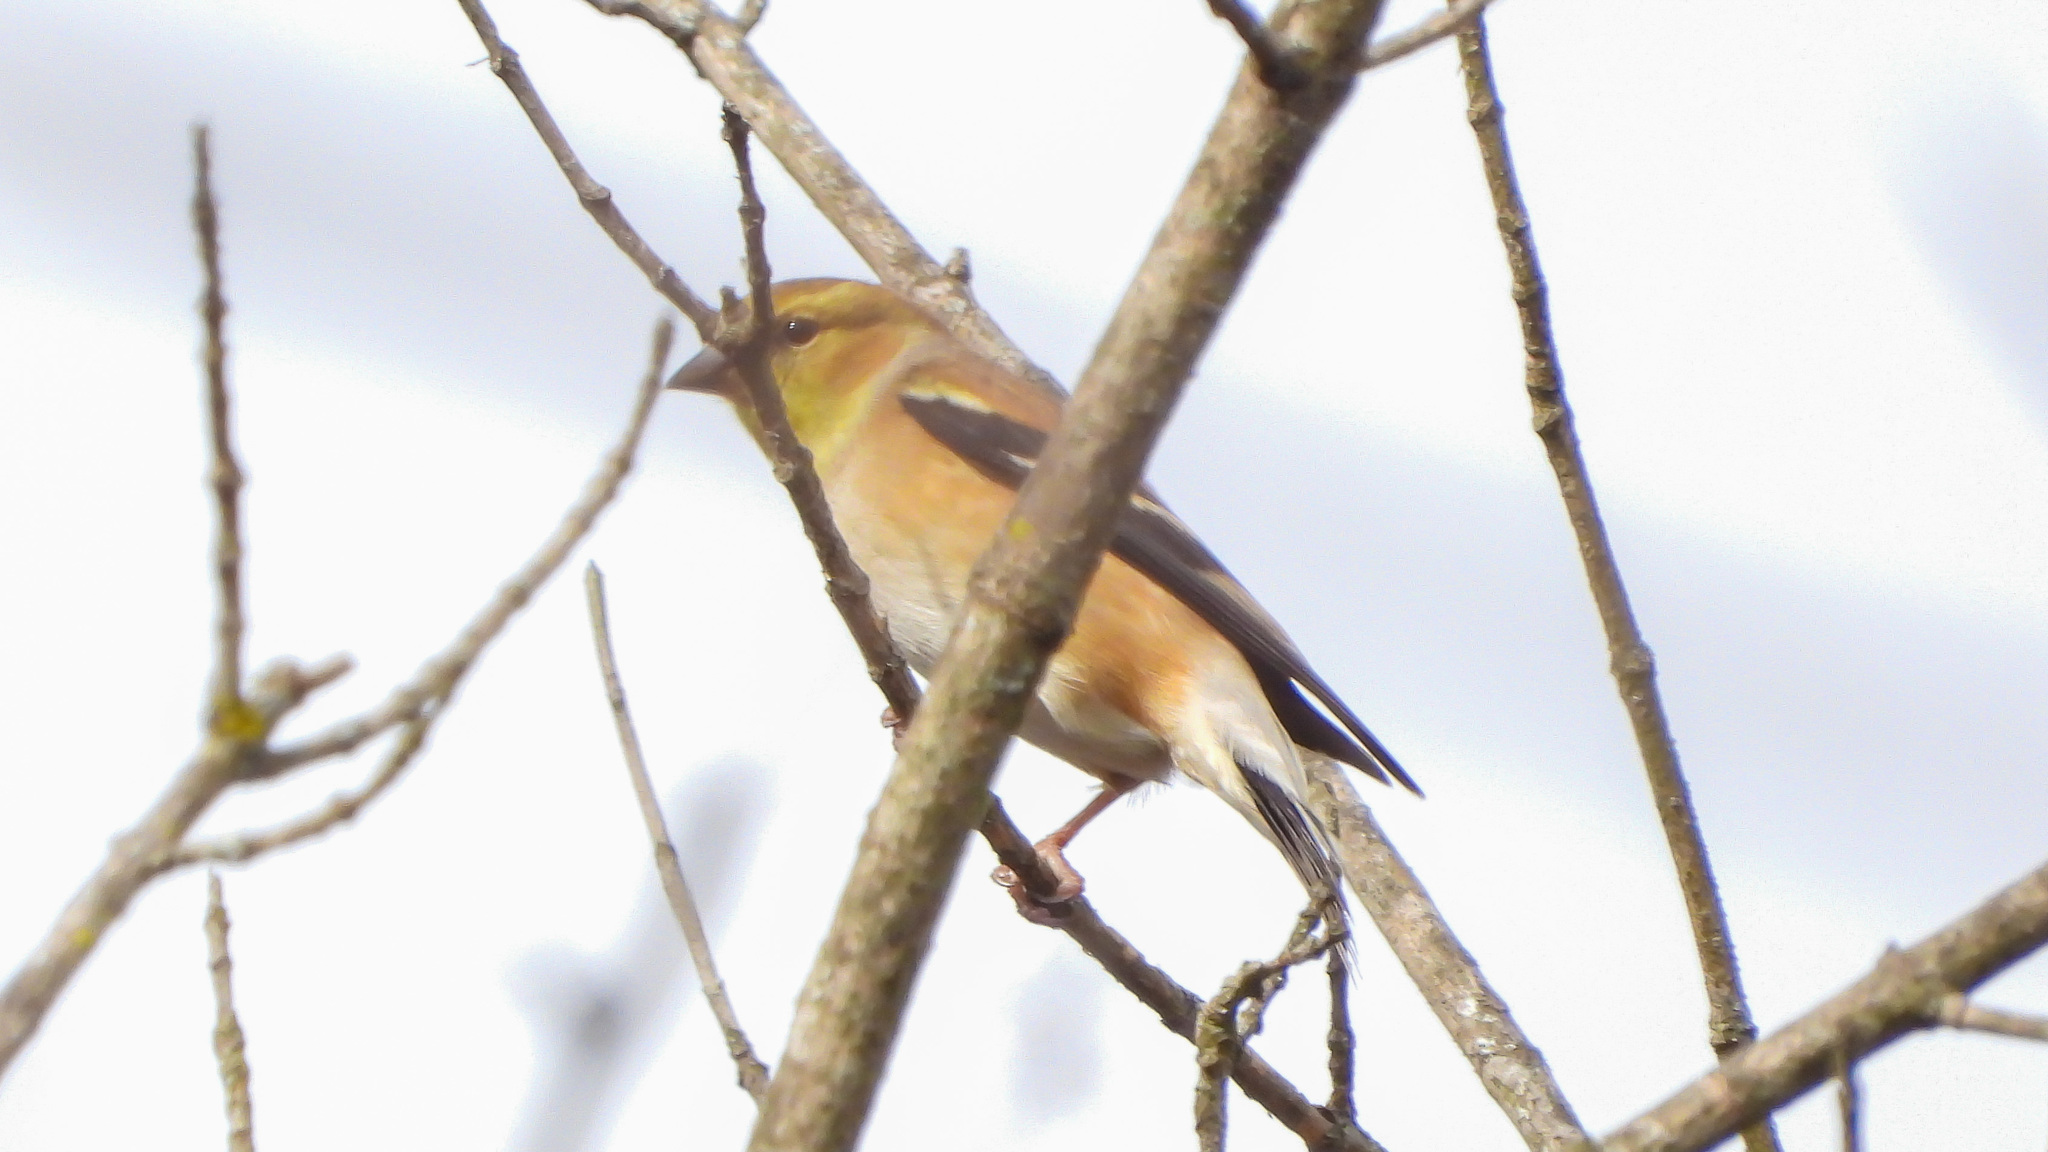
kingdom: Animalia
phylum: Chordata
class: Aves
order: Passeriformes
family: Fringillidae
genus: Spinus
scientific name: Spinus tristis
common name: American goldfinch
